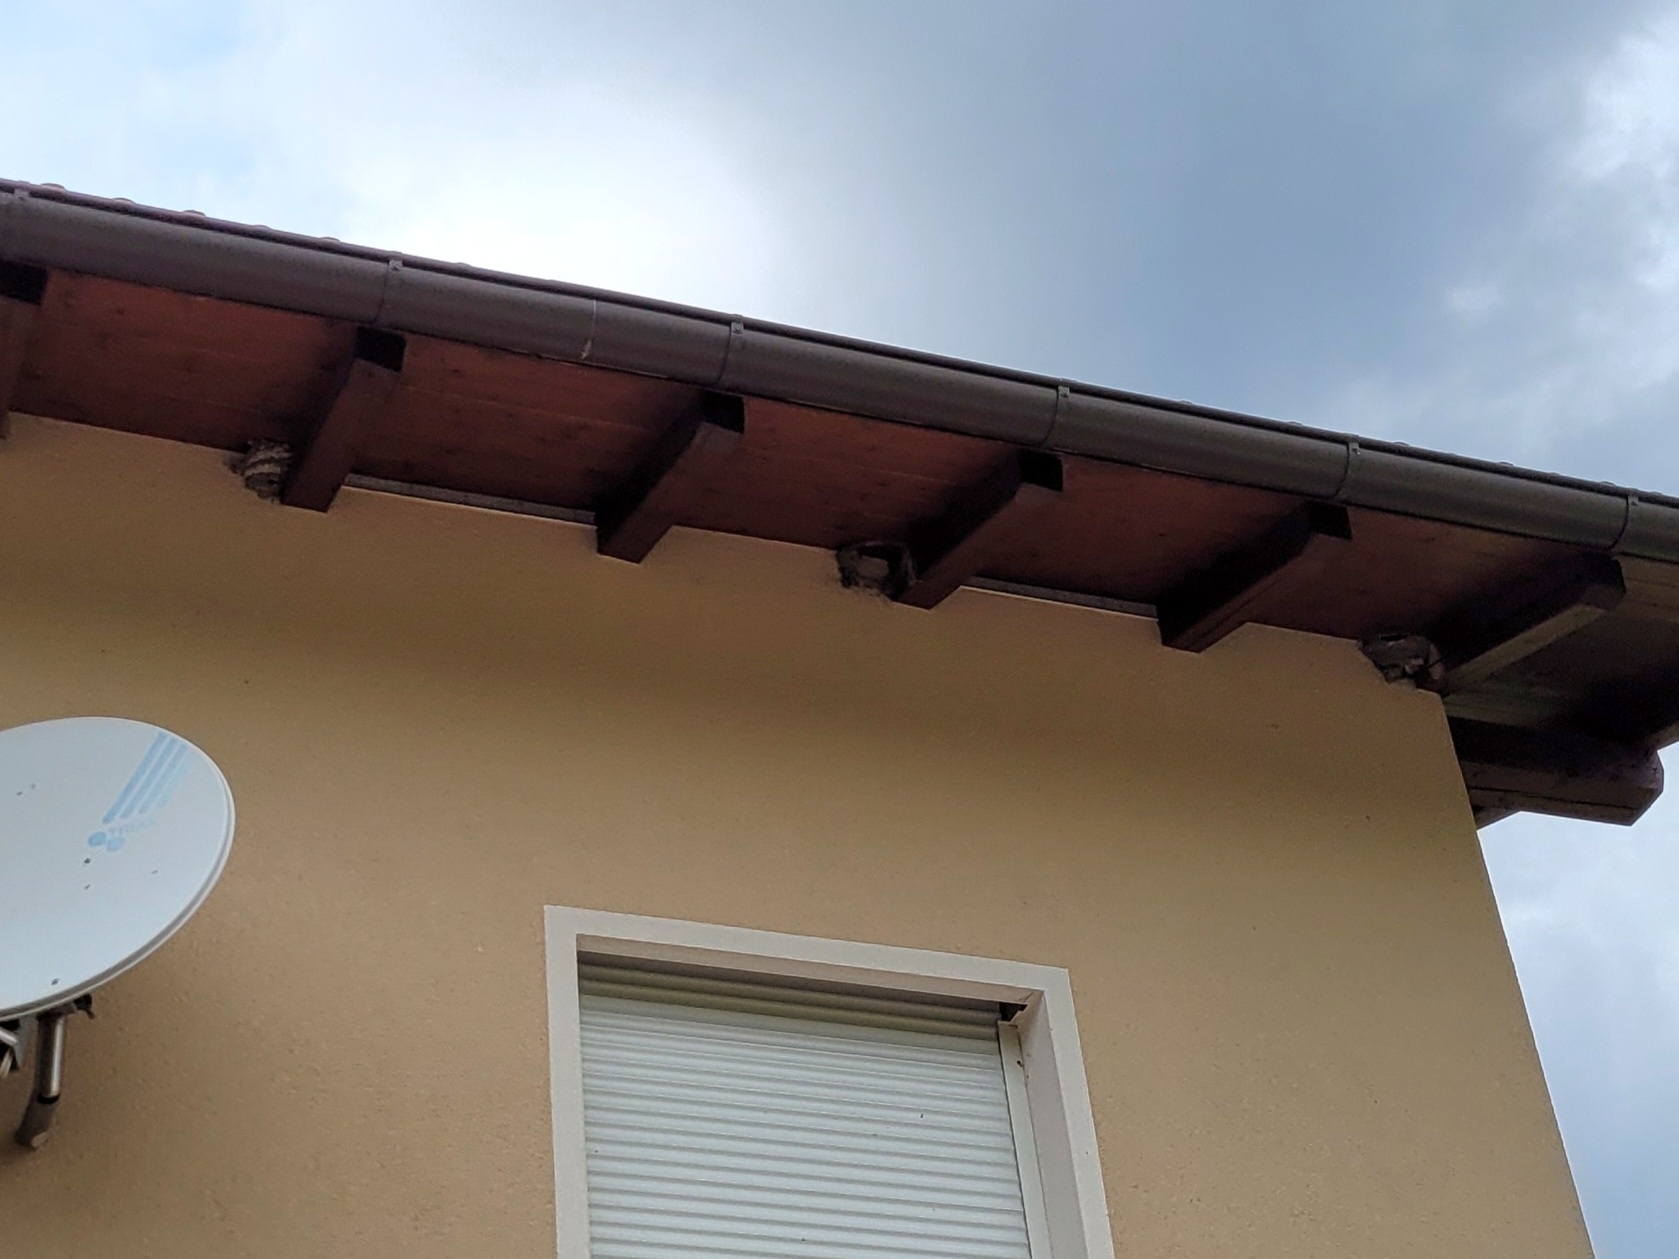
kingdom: Animalia
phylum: Chordata
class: Aves
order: Passeriformes
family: Hirundinidae
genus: Delichon
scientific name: Delichon urbicum
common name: Common house martin
